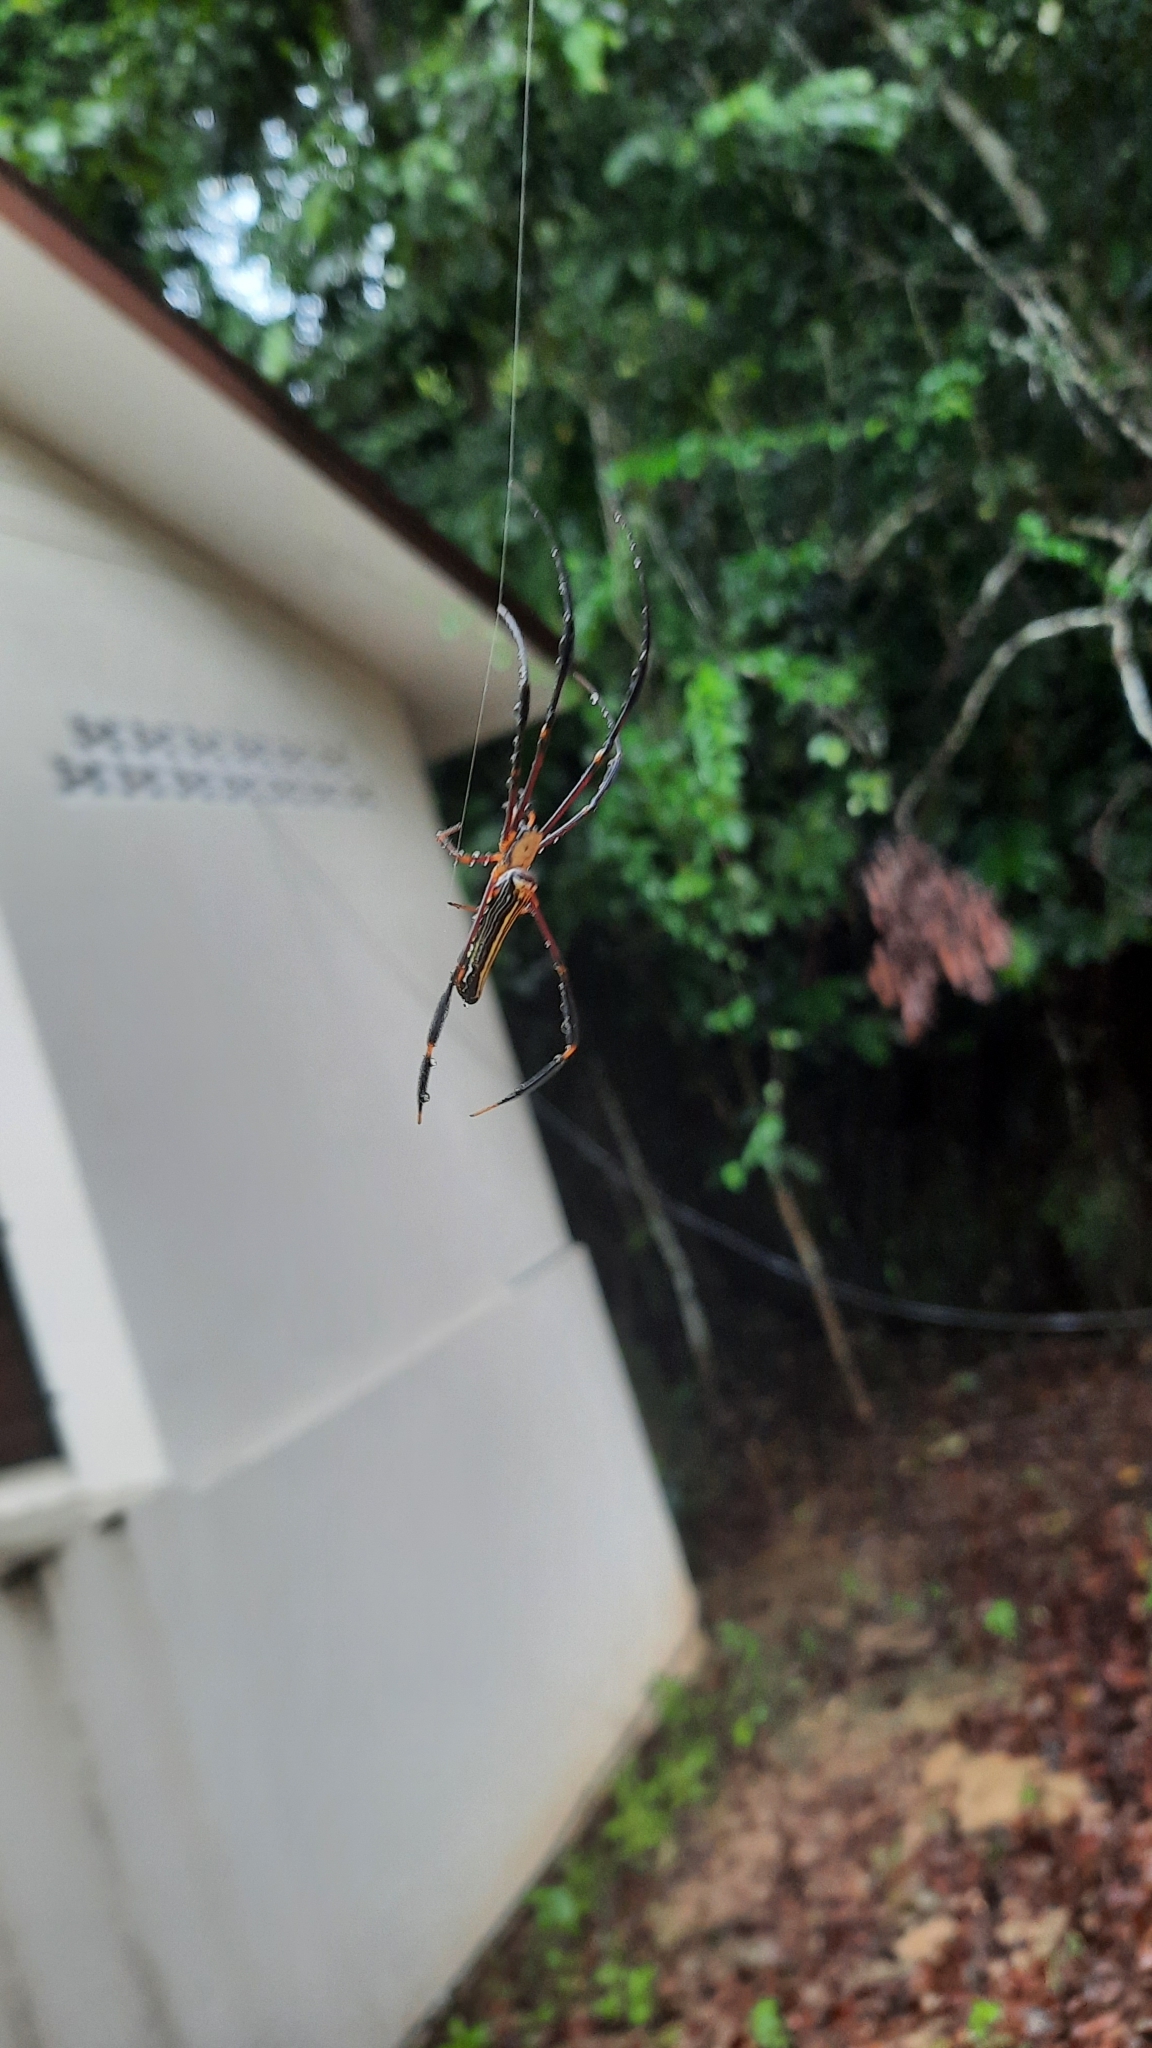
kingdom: Animalia
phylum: Arthropoda
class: Arachnida
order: Araneae
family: Araneidae
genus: Nephila
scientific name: Nephila pilipes
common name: Giant golden orb weaver
